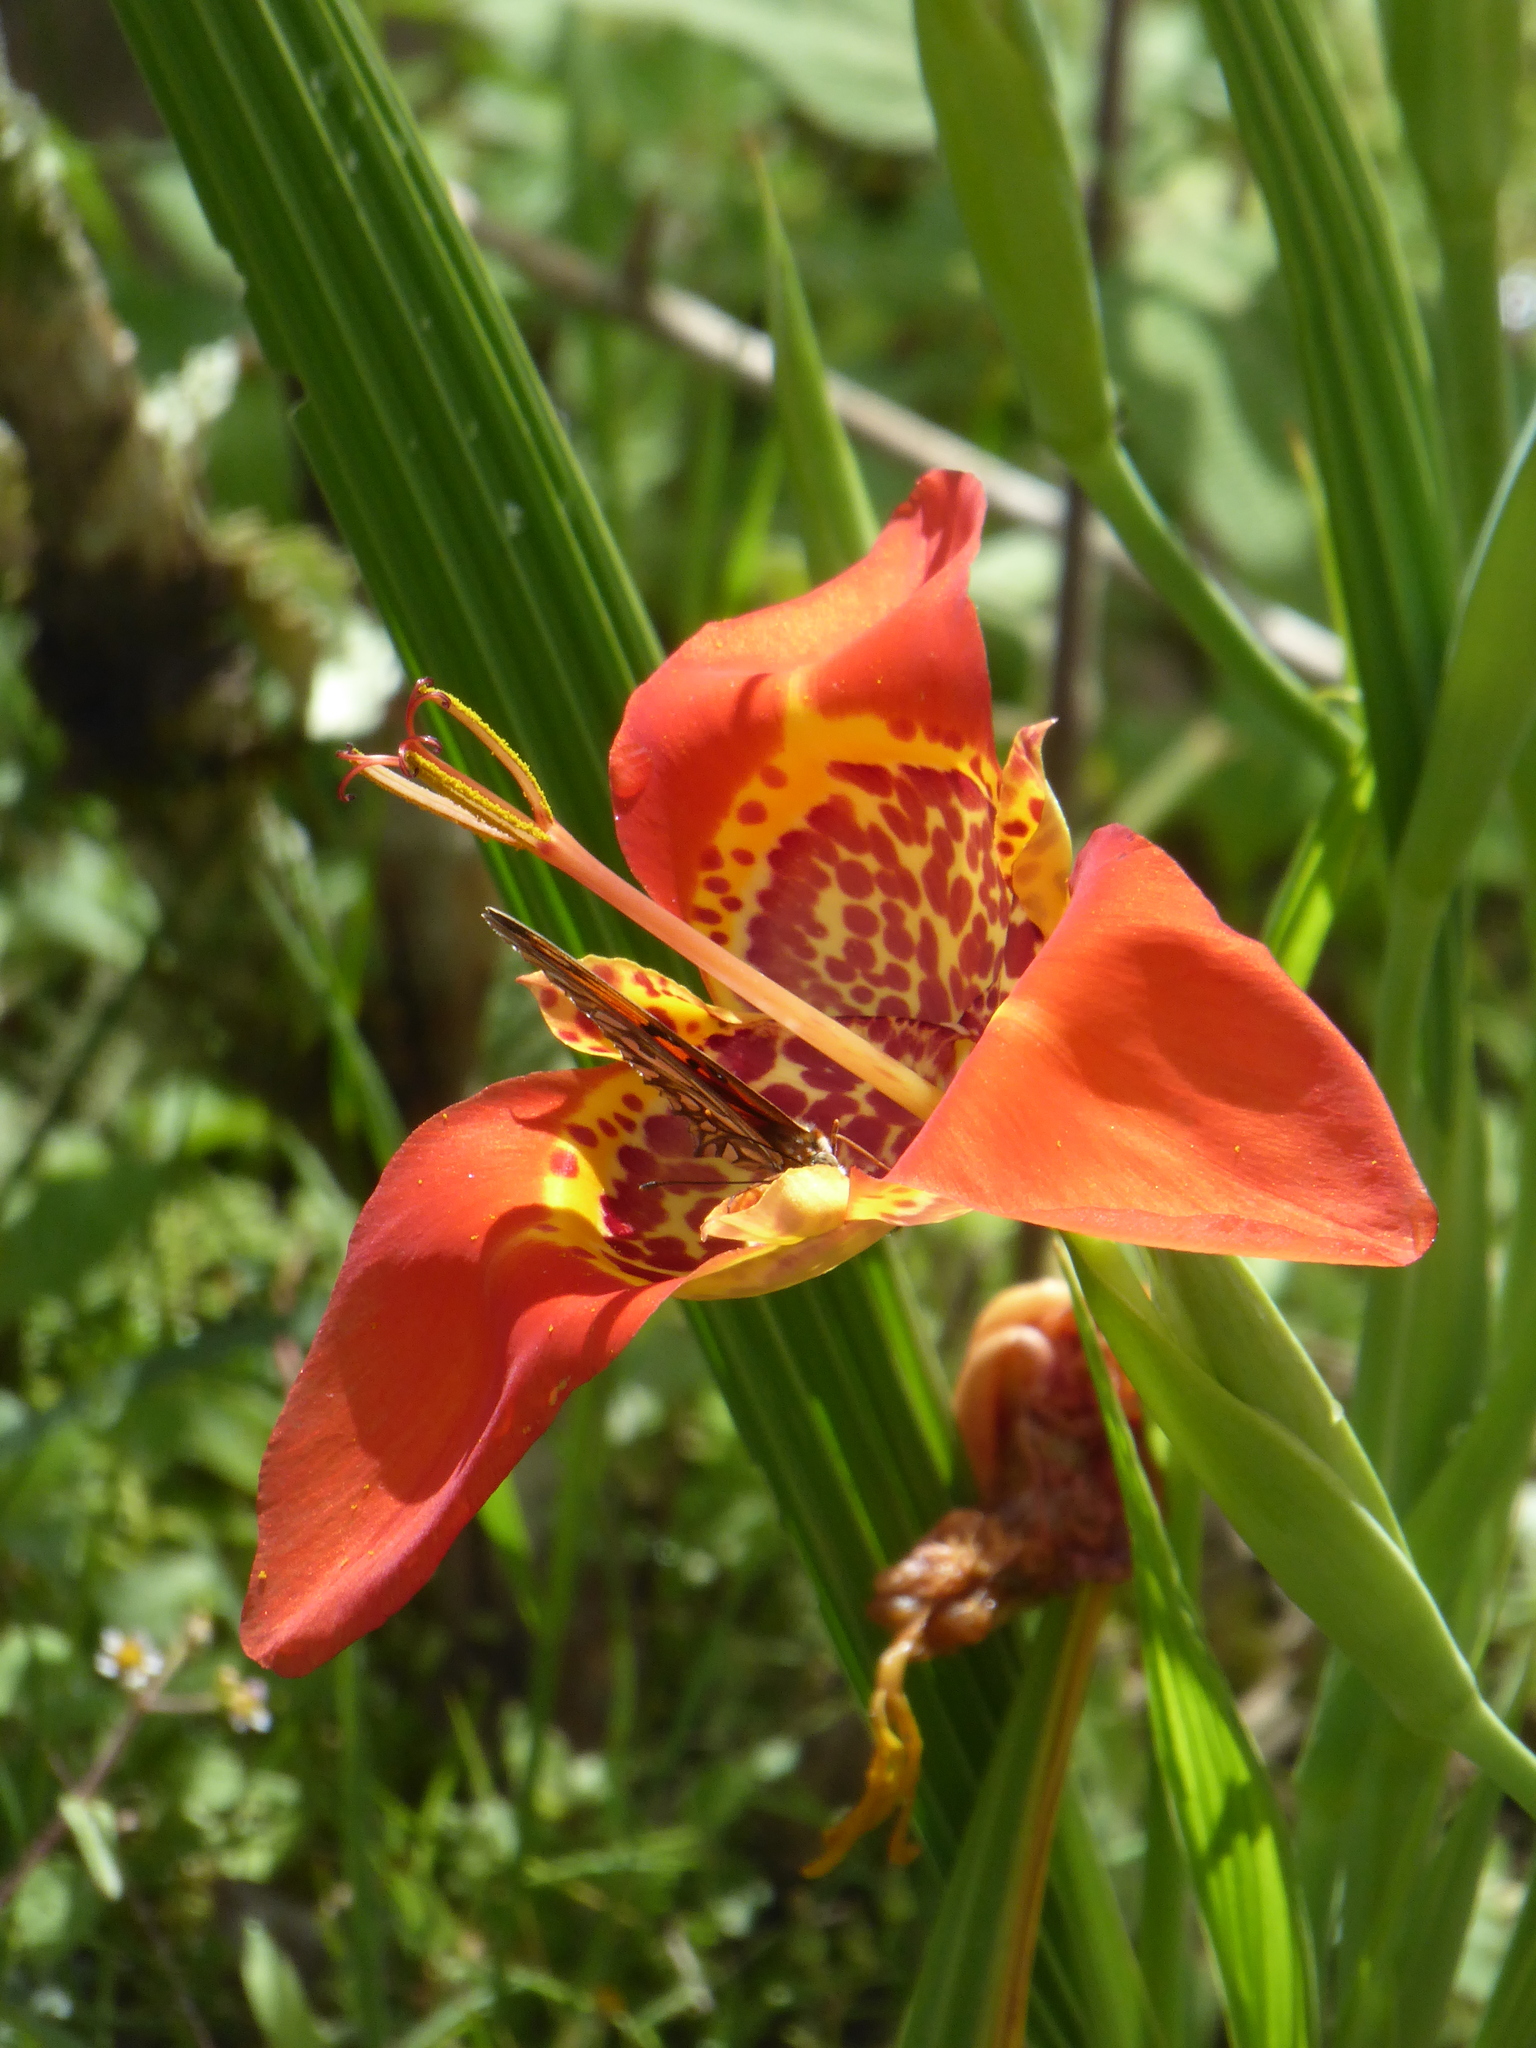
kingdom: Plantae
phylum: Tracheophyta
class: Liliopsida
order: Asparagales
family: Iridaceae
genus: Tigridia
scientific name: Tigridia pavonia
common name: Peacock-flower
